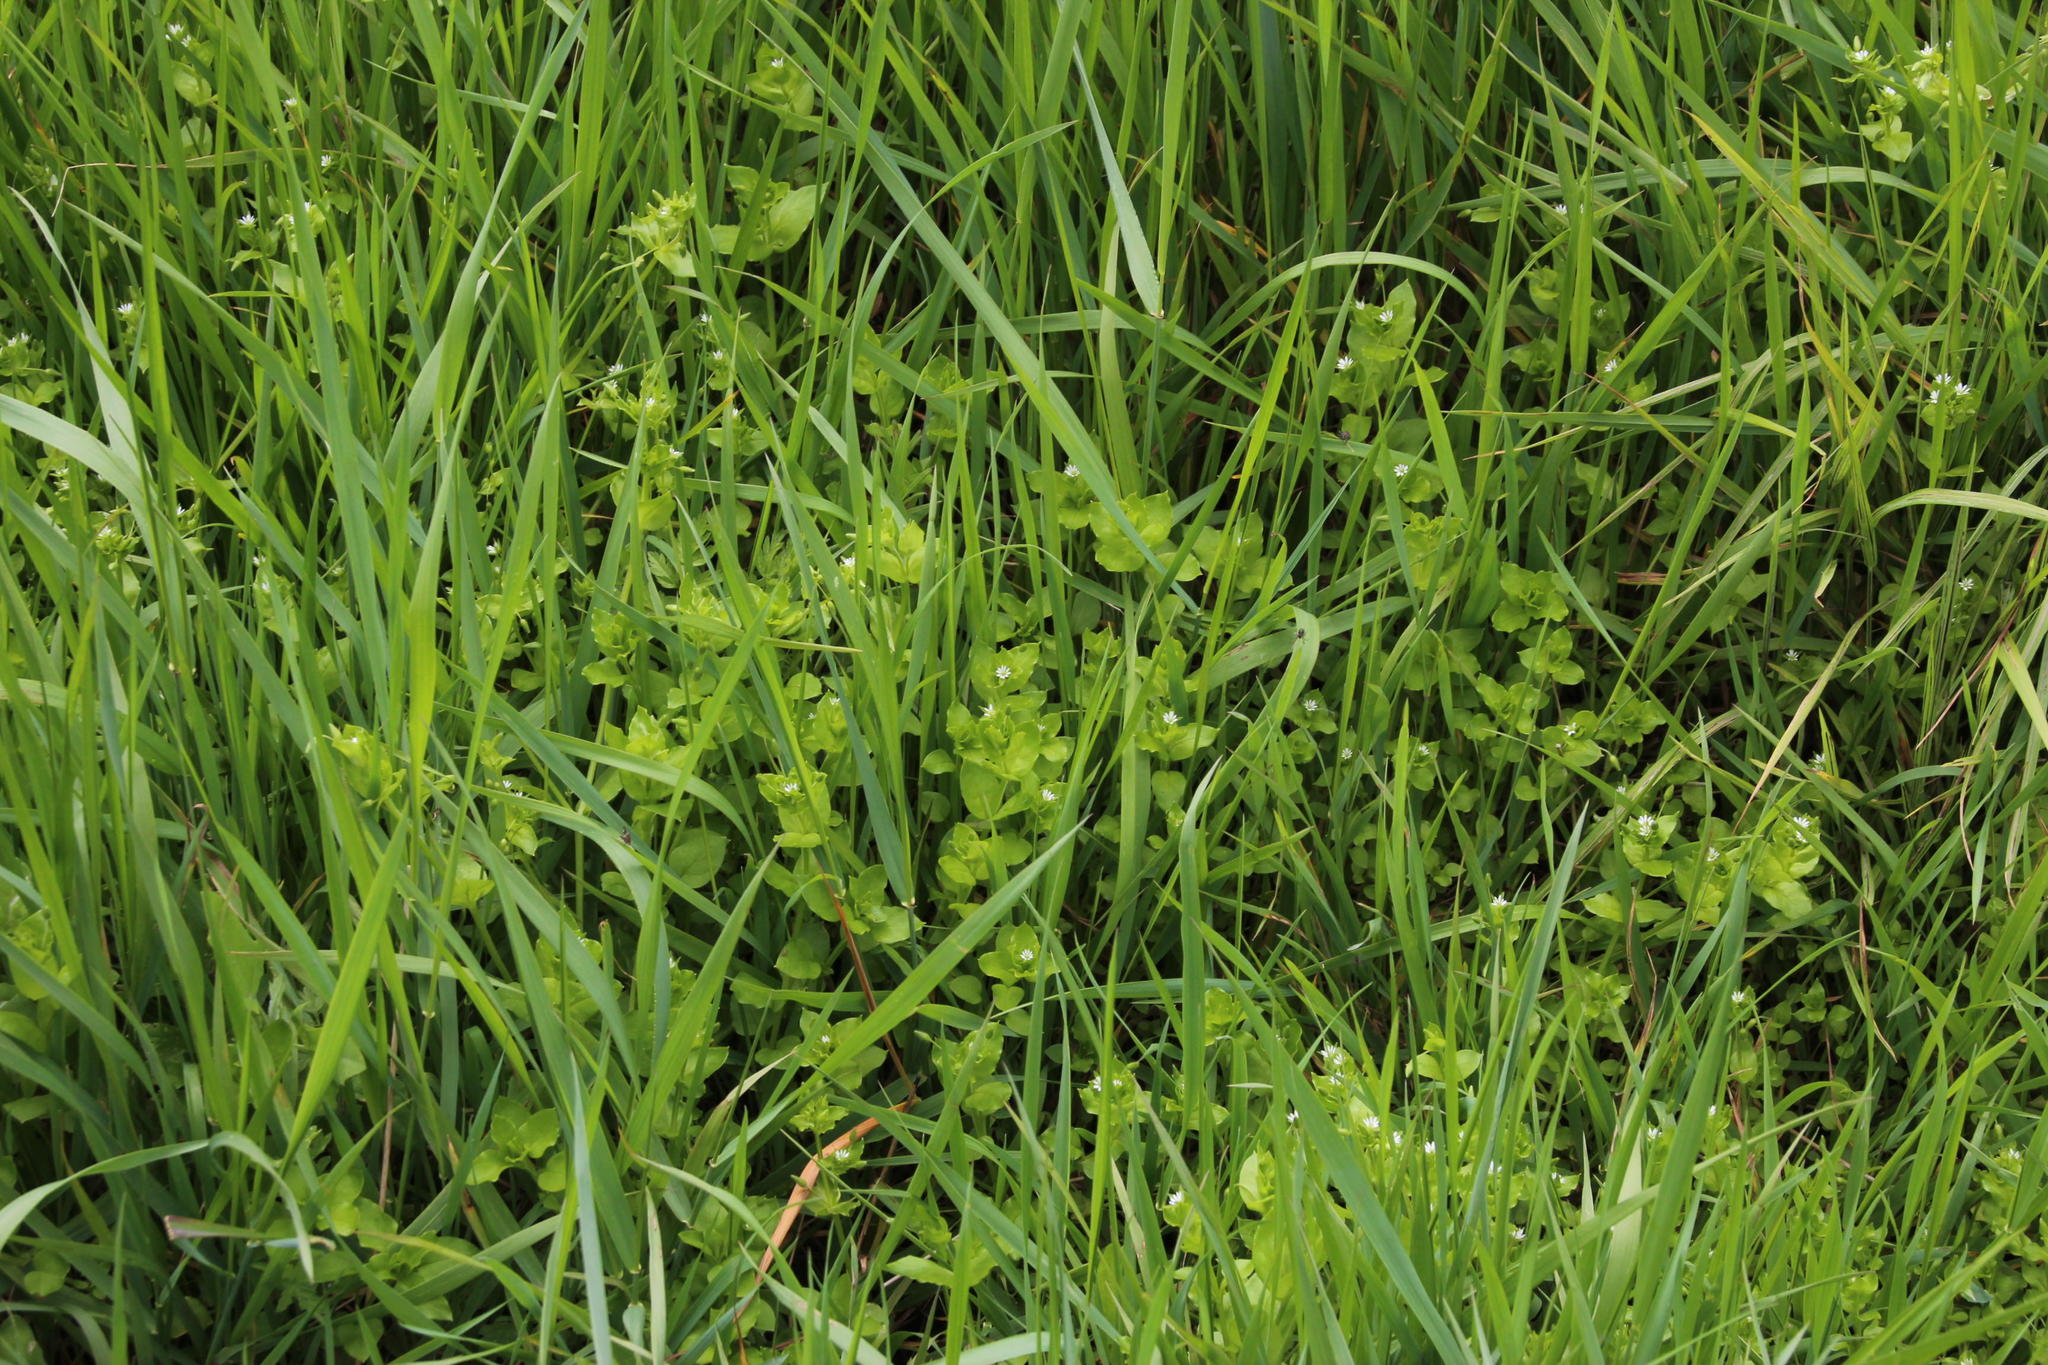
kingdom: Plantae
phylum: Tracheophyta
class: Magnoliopsida
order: Caryophyllales
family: Caryophyllaceae
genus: Stellaria
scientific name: Stellaria media
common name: Common chickweed
